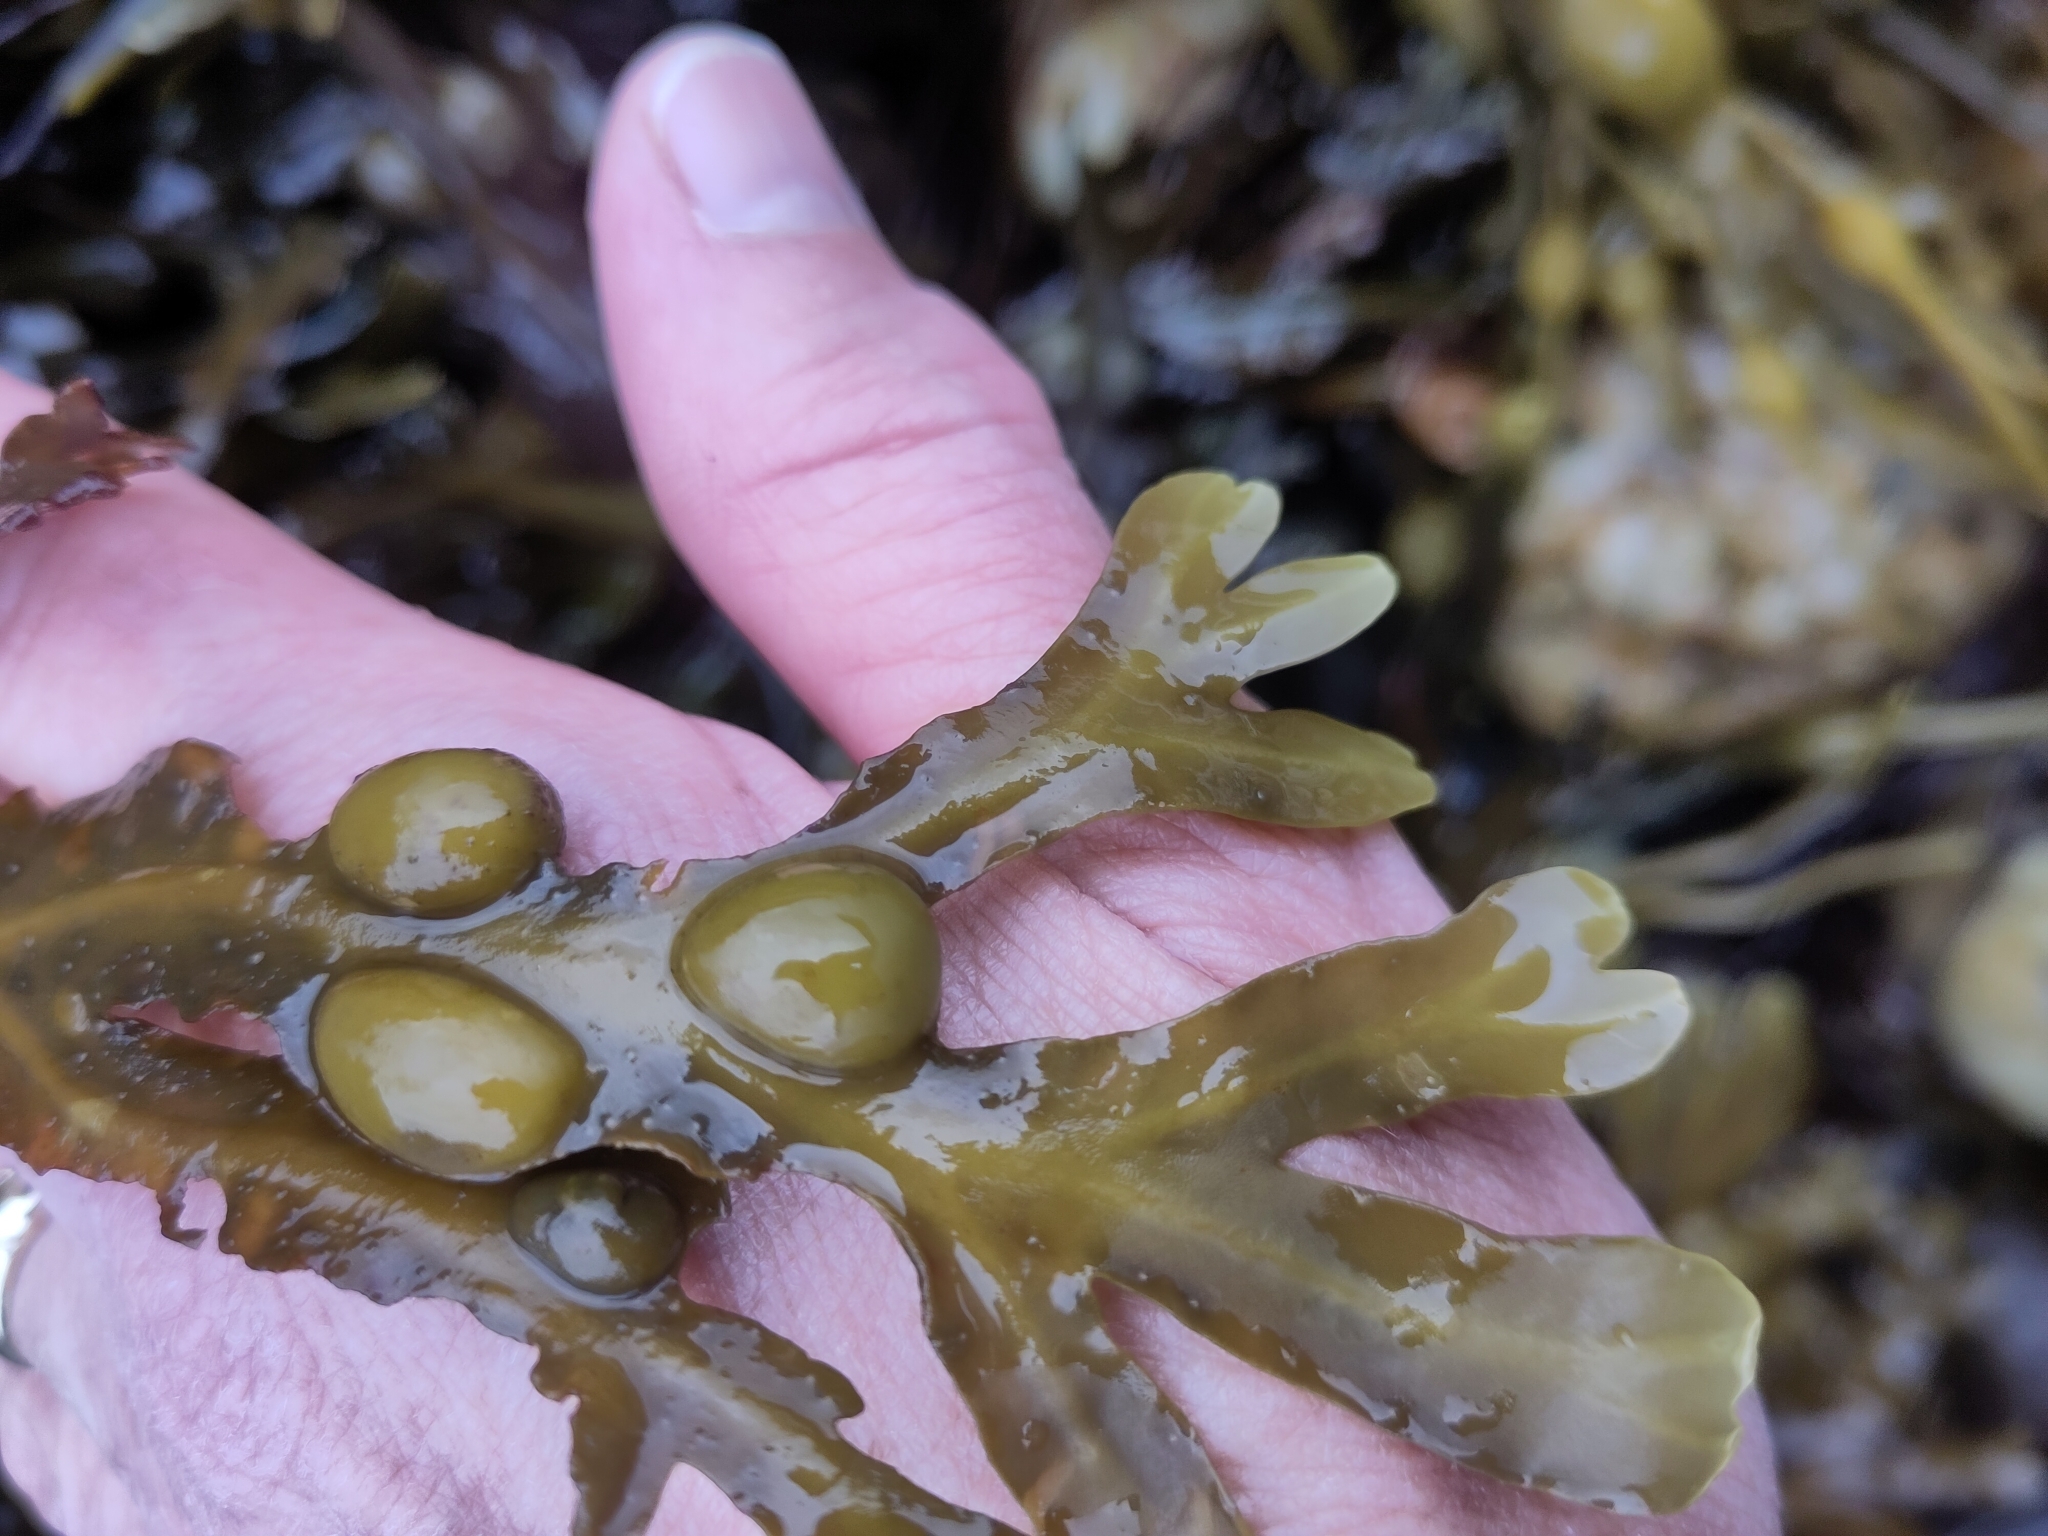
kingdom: Chromista
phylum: Ochrophyta
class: Phaeophyceae
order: Fucales
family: Fucaceae
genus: Fucus
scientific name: Fucus vesiculosus
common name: Bladder wrack
